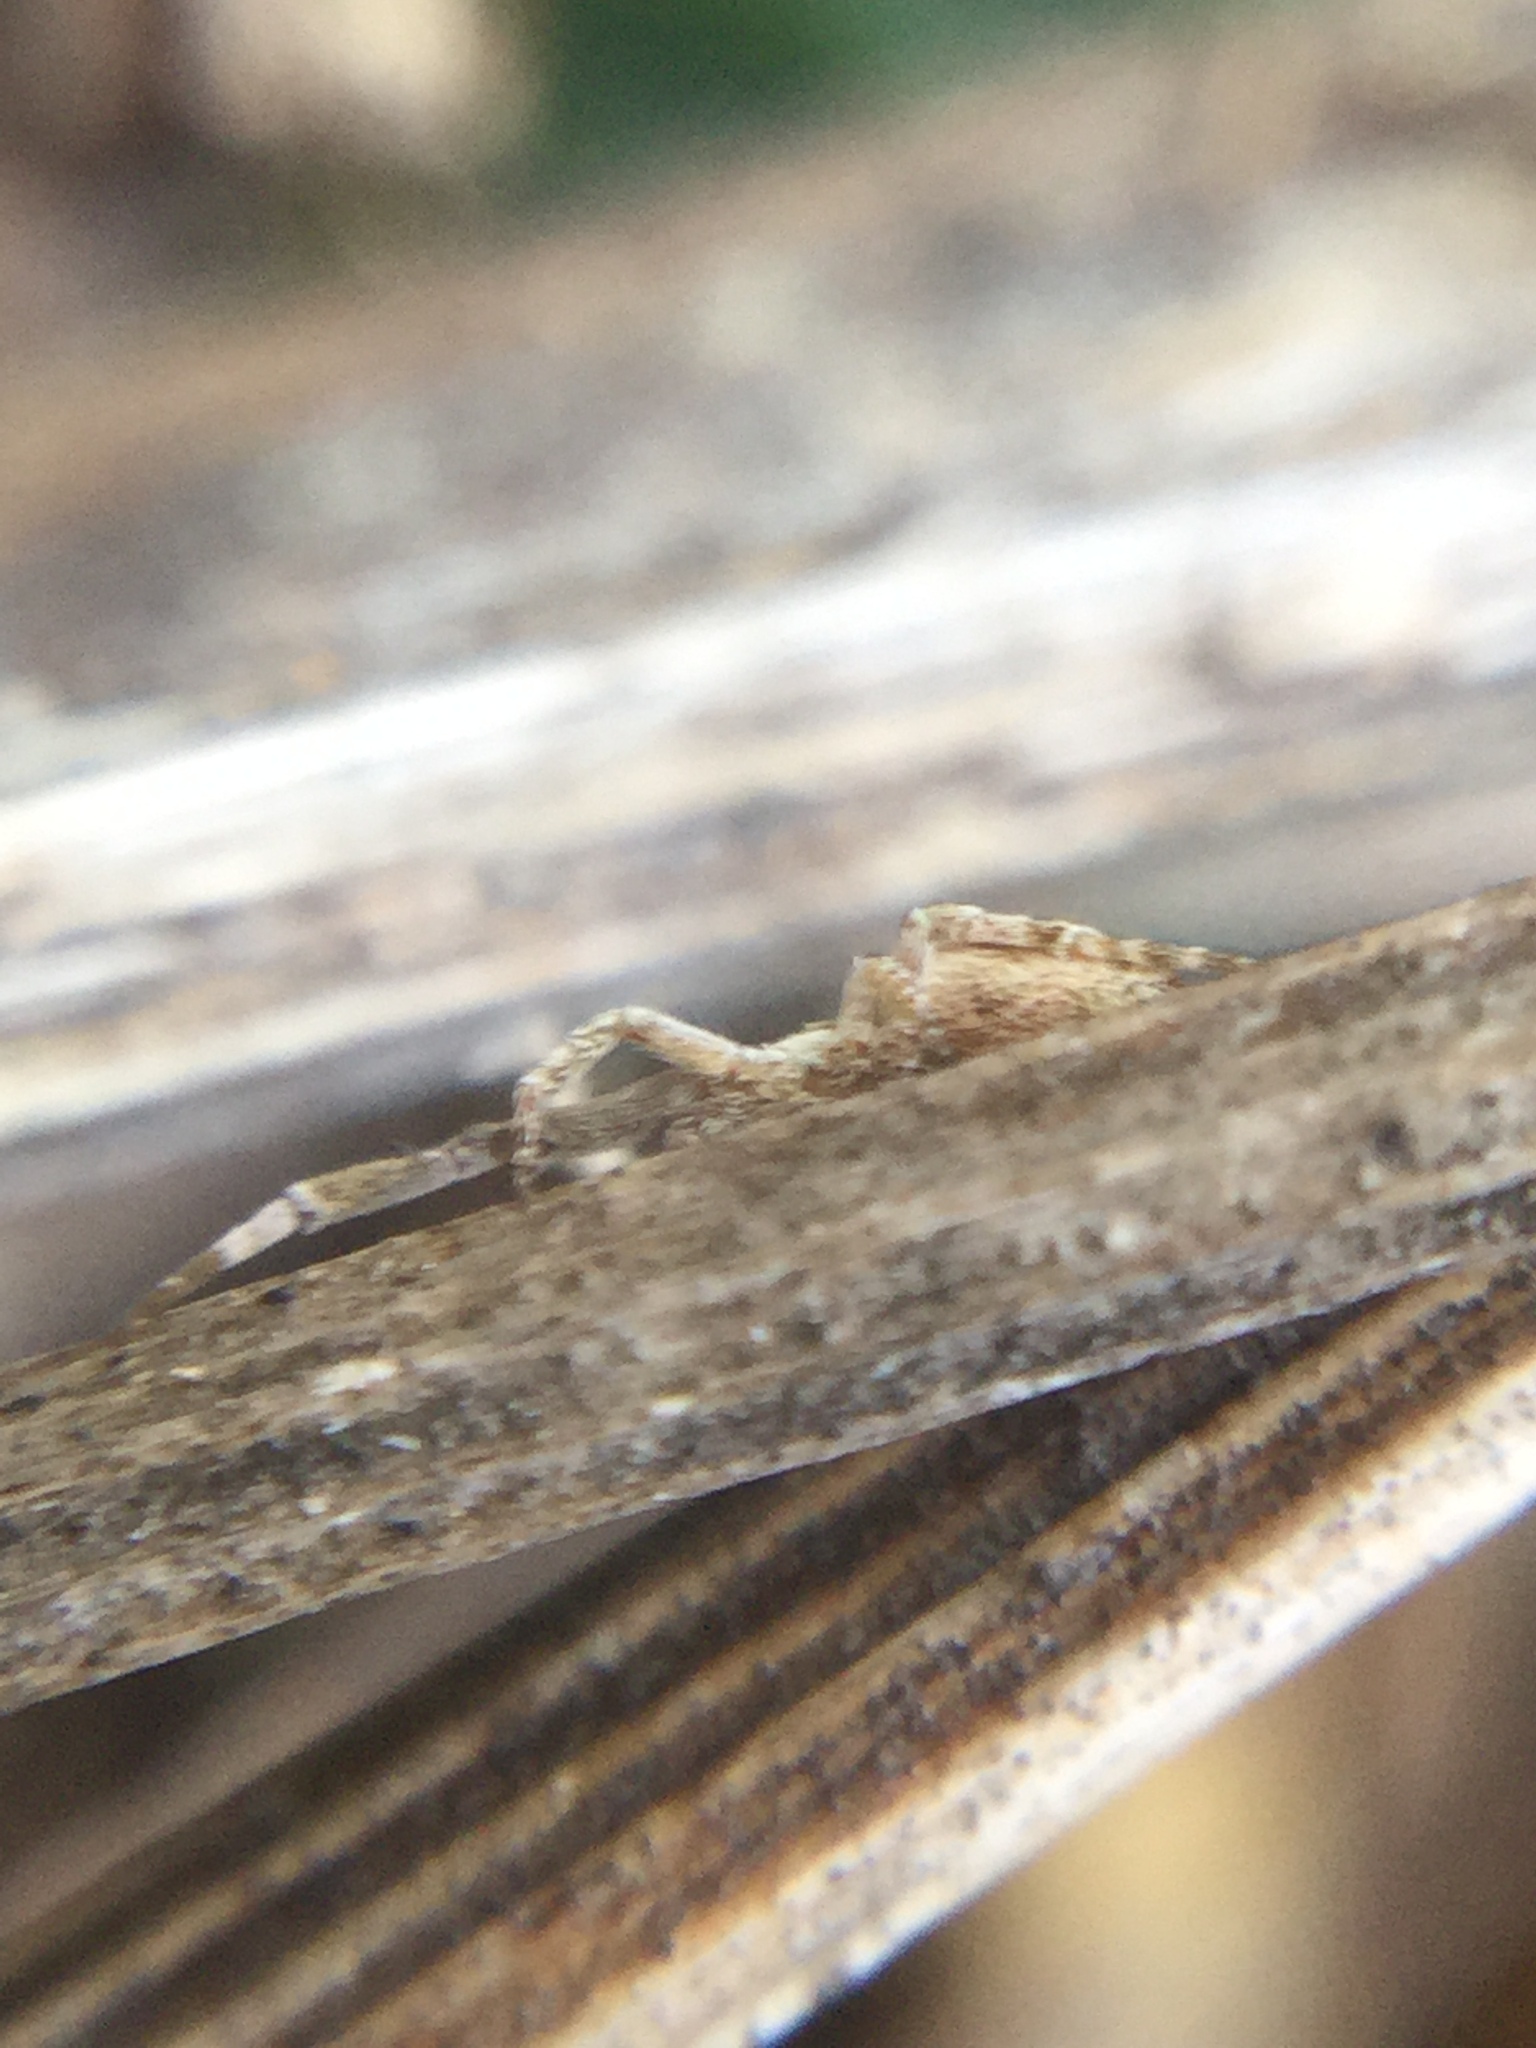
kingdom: Animalia
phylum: Arthropoda
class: Arachnida
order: Araneae
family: Uloboridae
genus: Uloborus
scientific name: Uloborus glomosus
